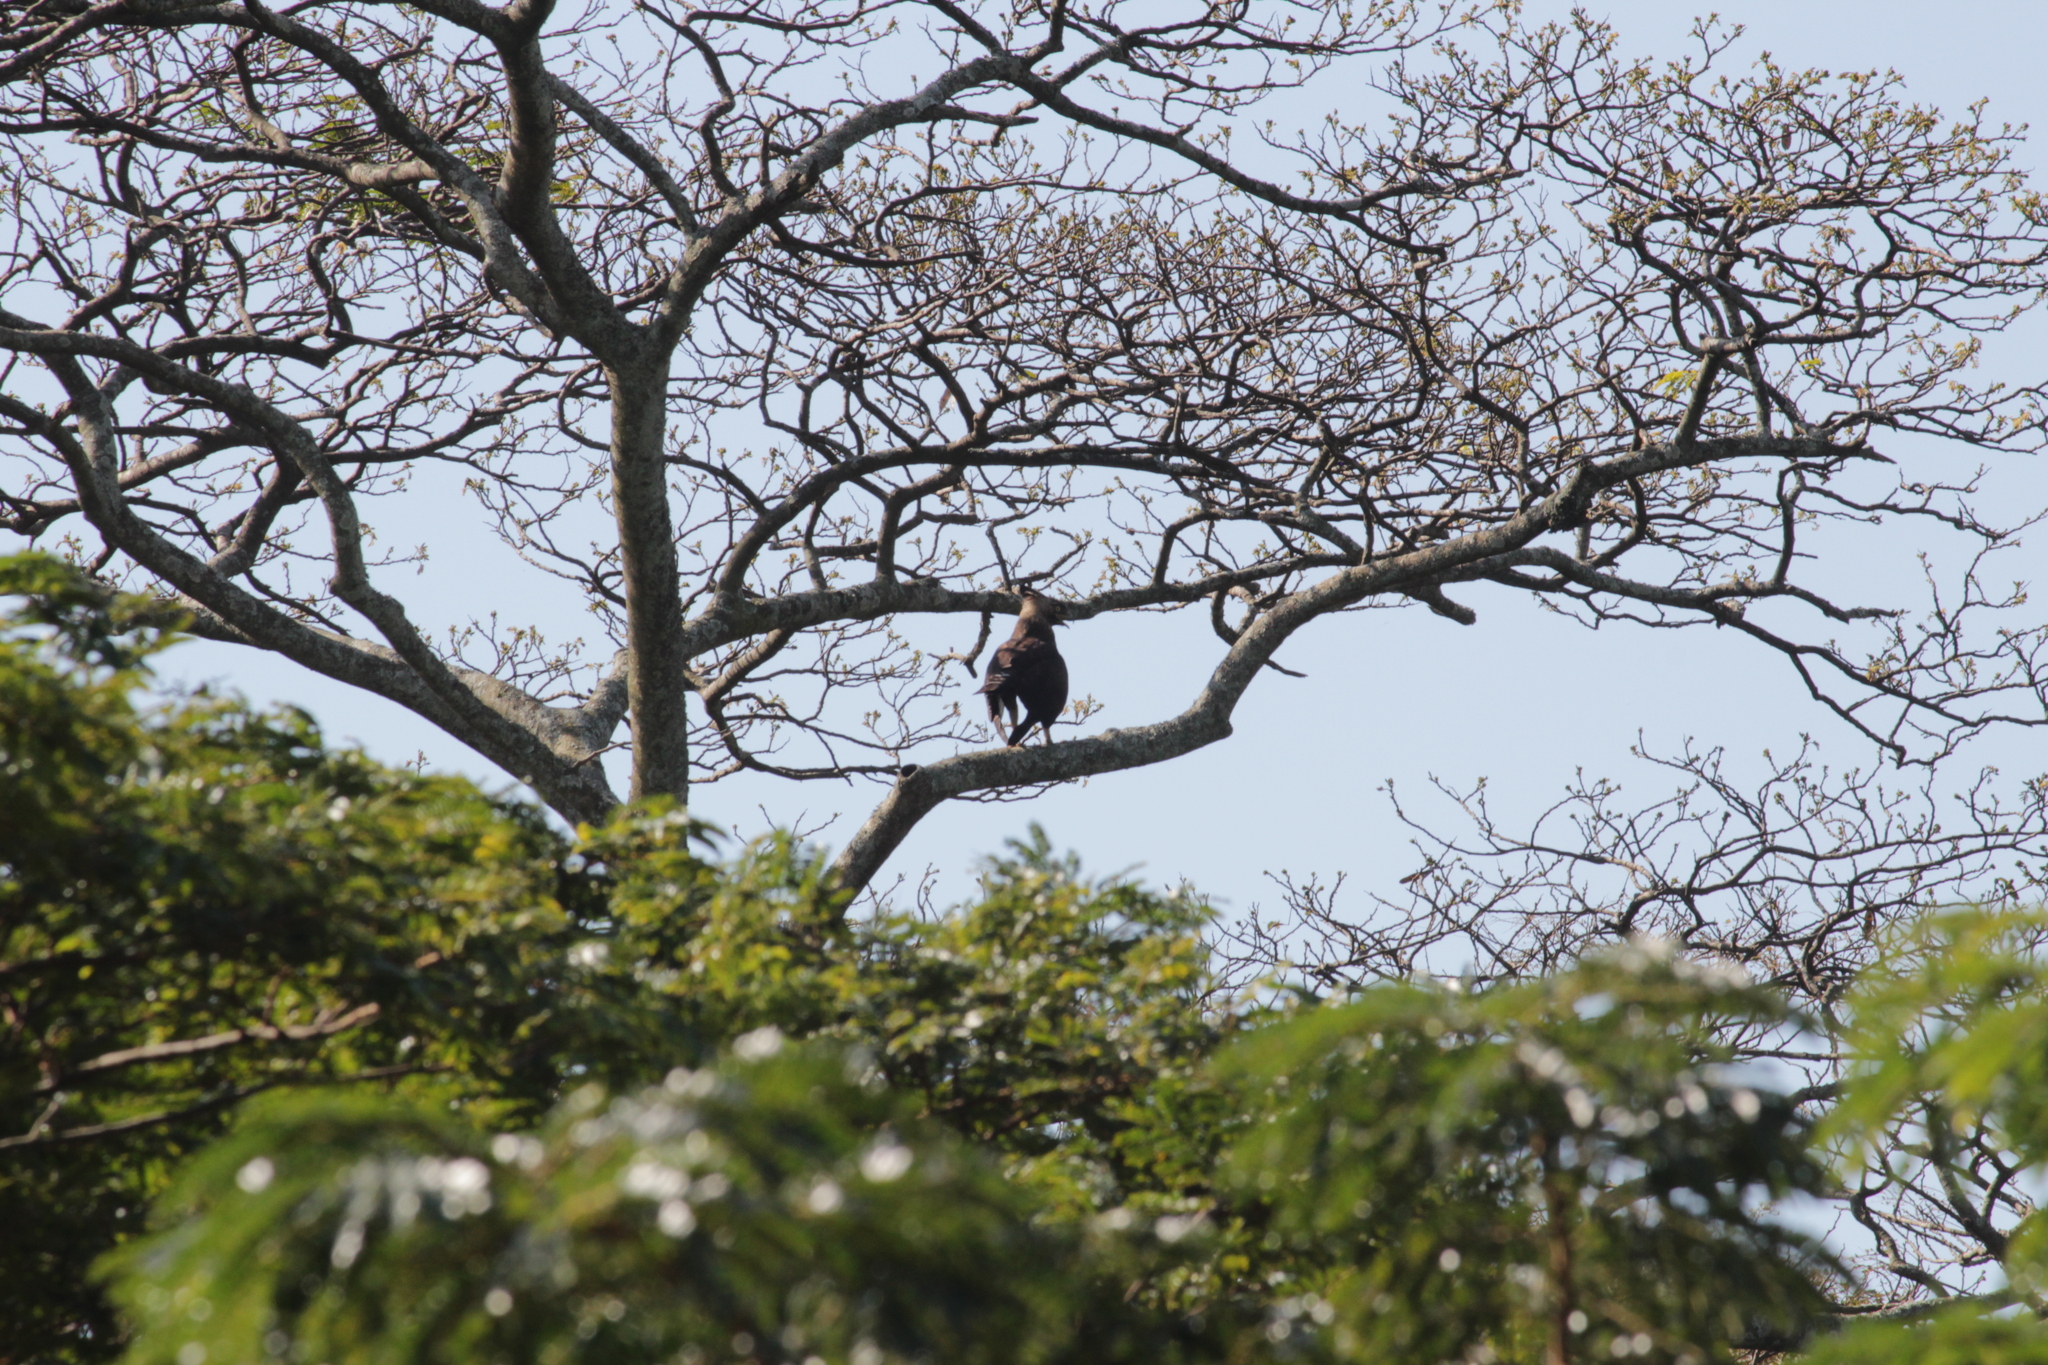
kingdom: Animalia
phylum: Chordata
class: Aves
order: Accipitriformes
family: Accipitridae
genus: Lophaetus
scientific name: Lophaetus occipitalis
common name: Long-crested eagle
